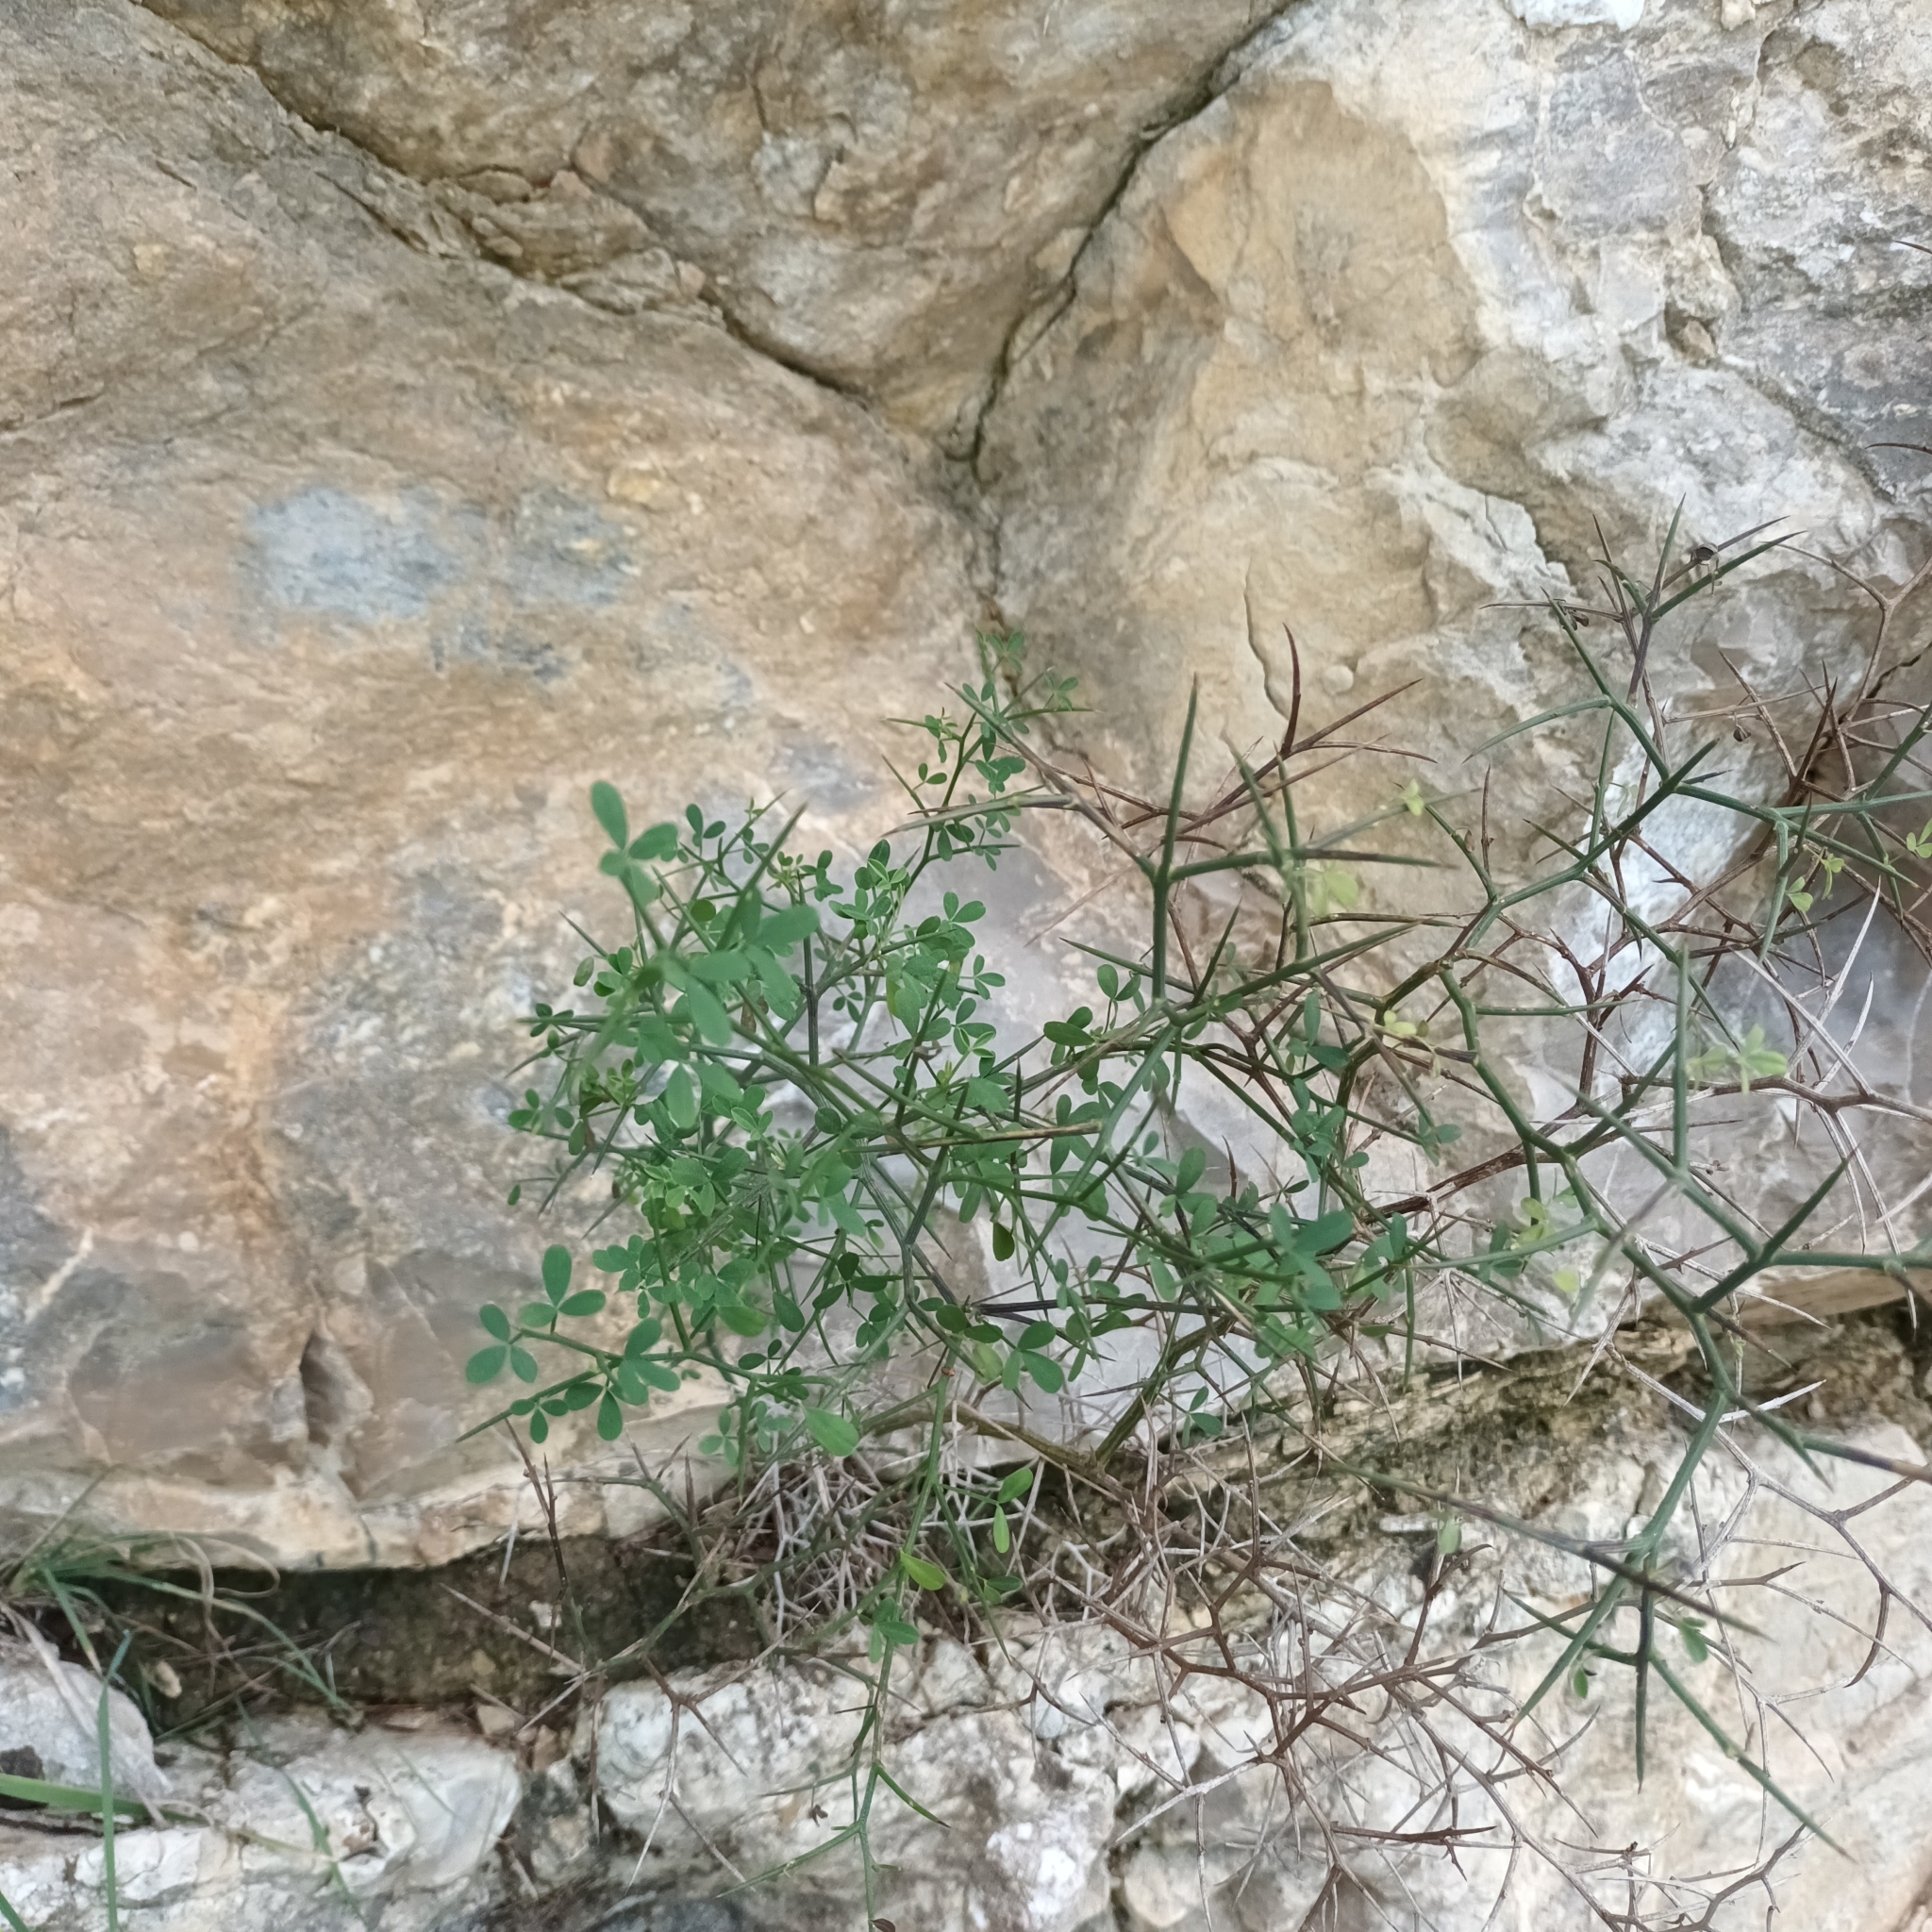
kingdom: Plantae
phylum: Tracheophyta
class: Magnoliopsida
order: Fabales
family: Fabaceae
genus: Calicotome
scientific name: Calicotome spinosa
